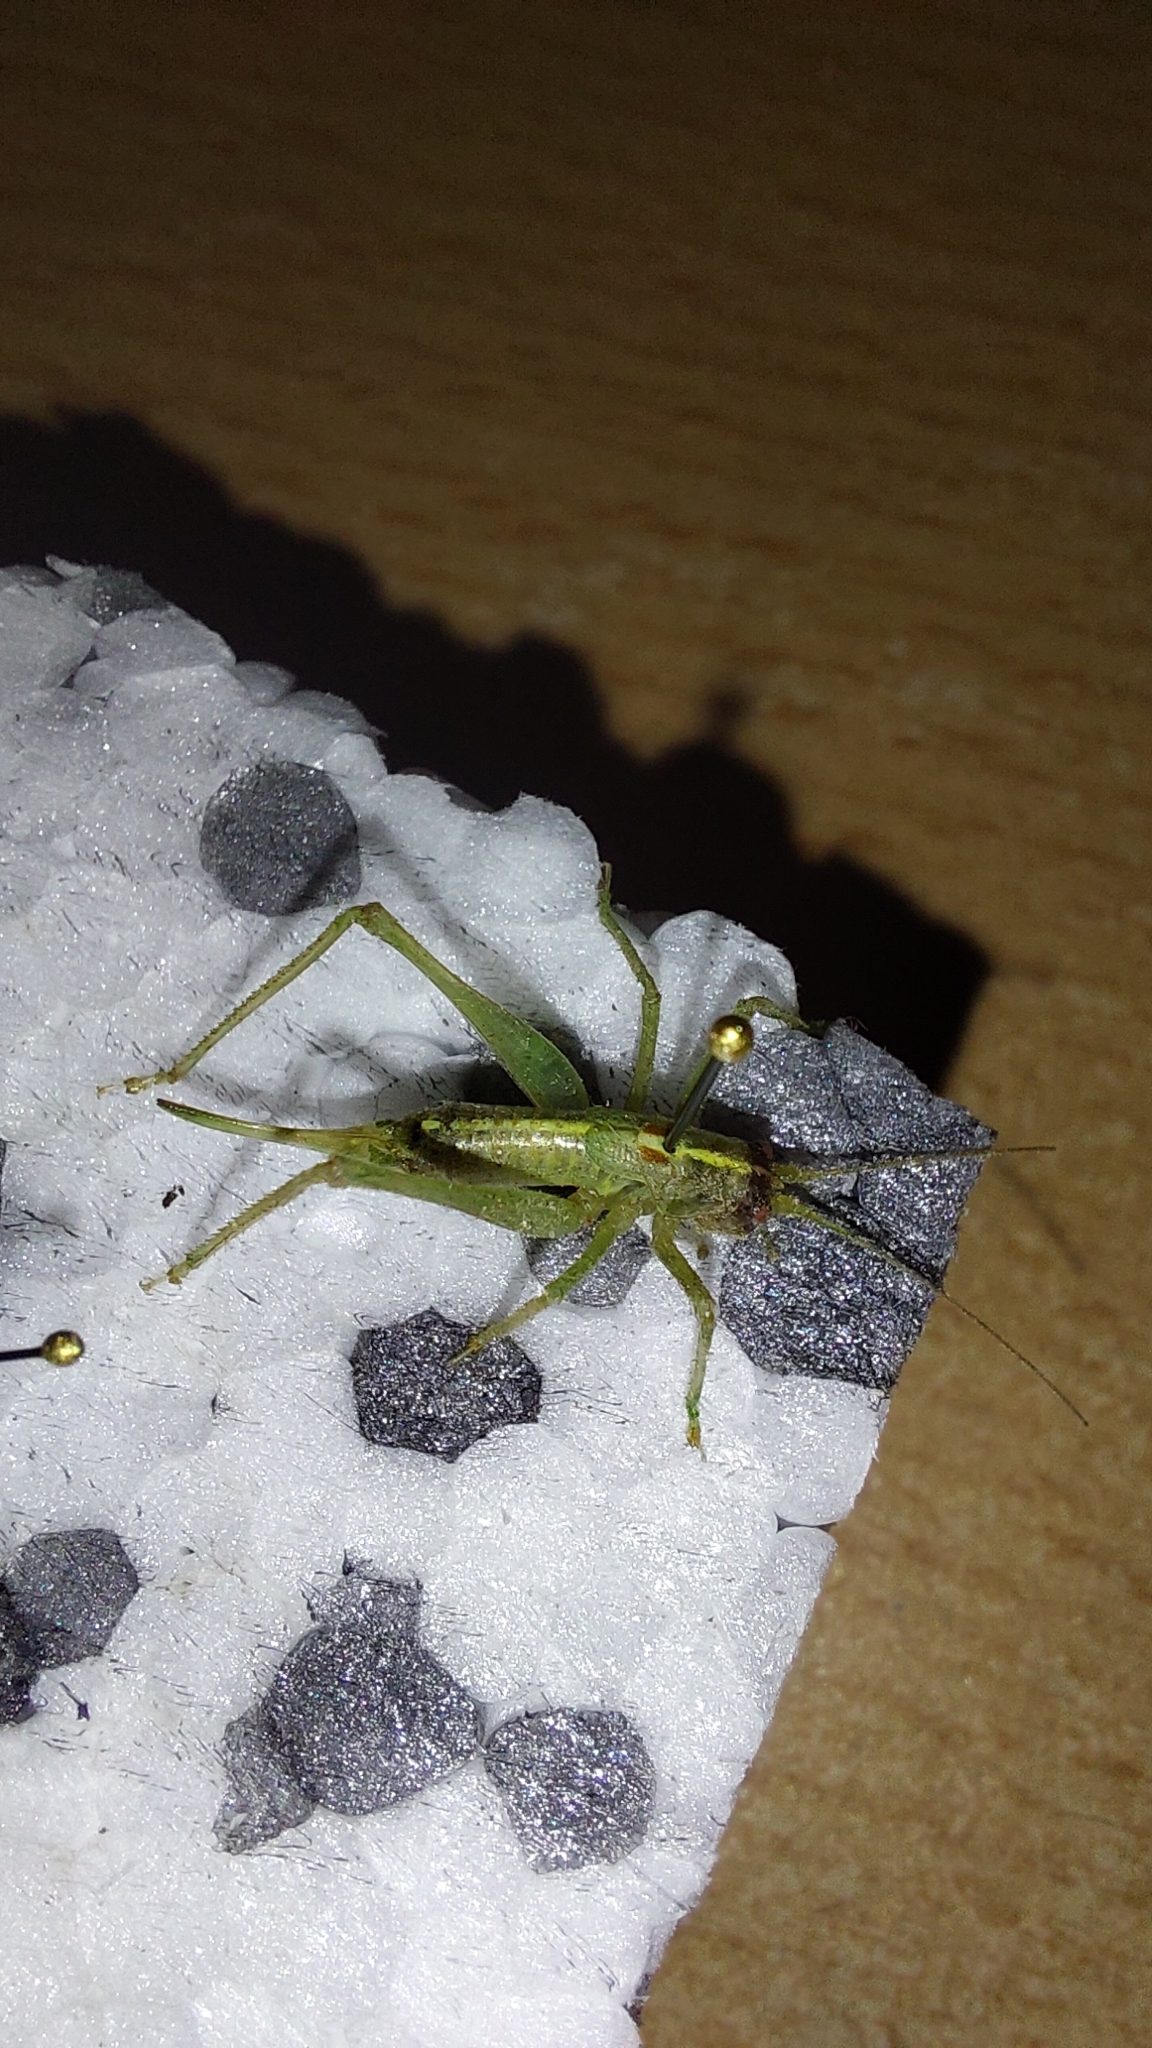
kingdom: Animalia
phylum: Arthropoda
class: Insecta
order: Orthoptera
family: Tettigoniidae
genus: Meconema
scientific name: Meconema meridionale
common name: Southern oak bush-cricket
